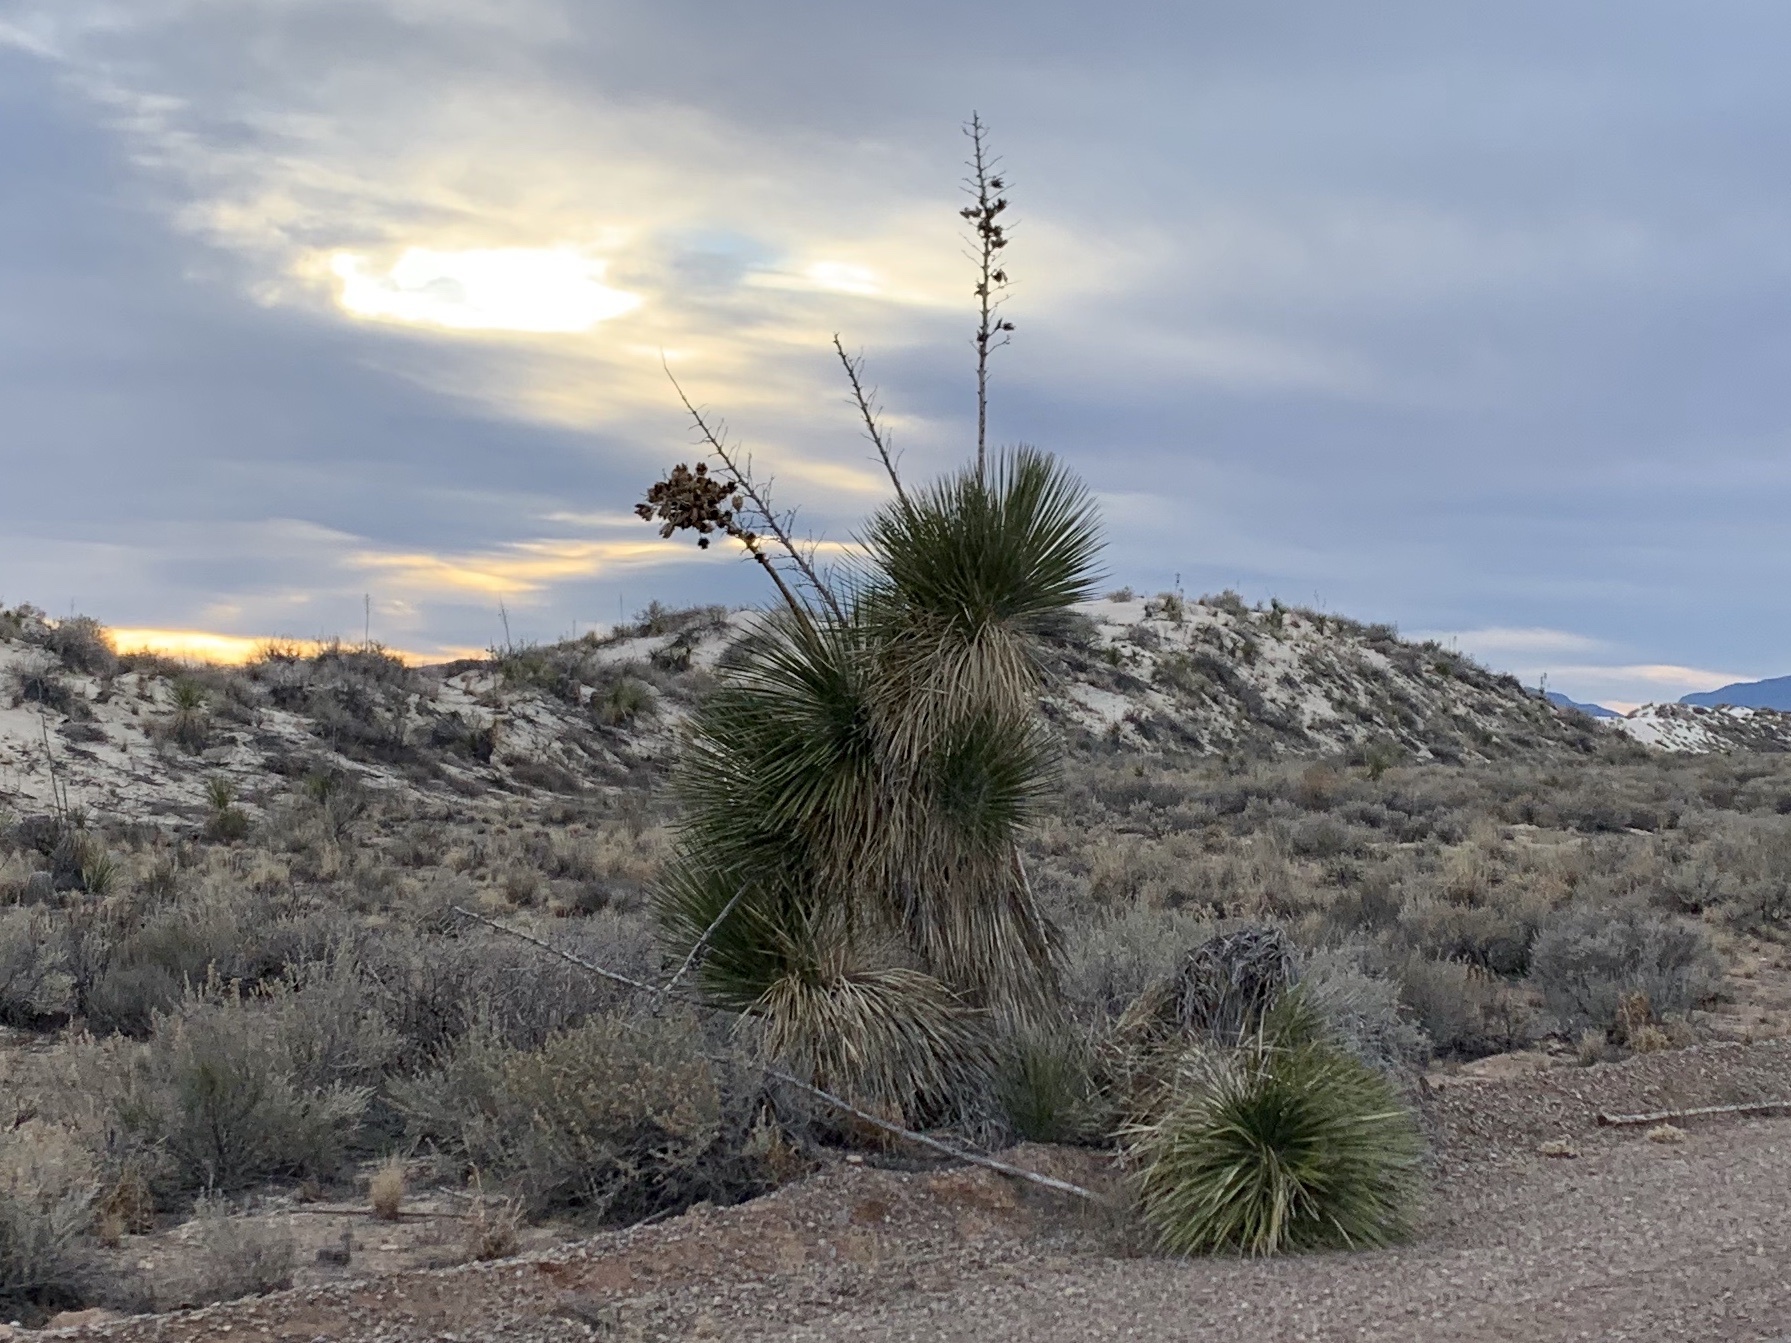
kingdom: Plantae
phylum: Tracheophyta
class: Liliopsida
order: Asparagales
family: Asparagaceae
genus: Yucca
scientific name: Yucca elata
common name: Palmella
